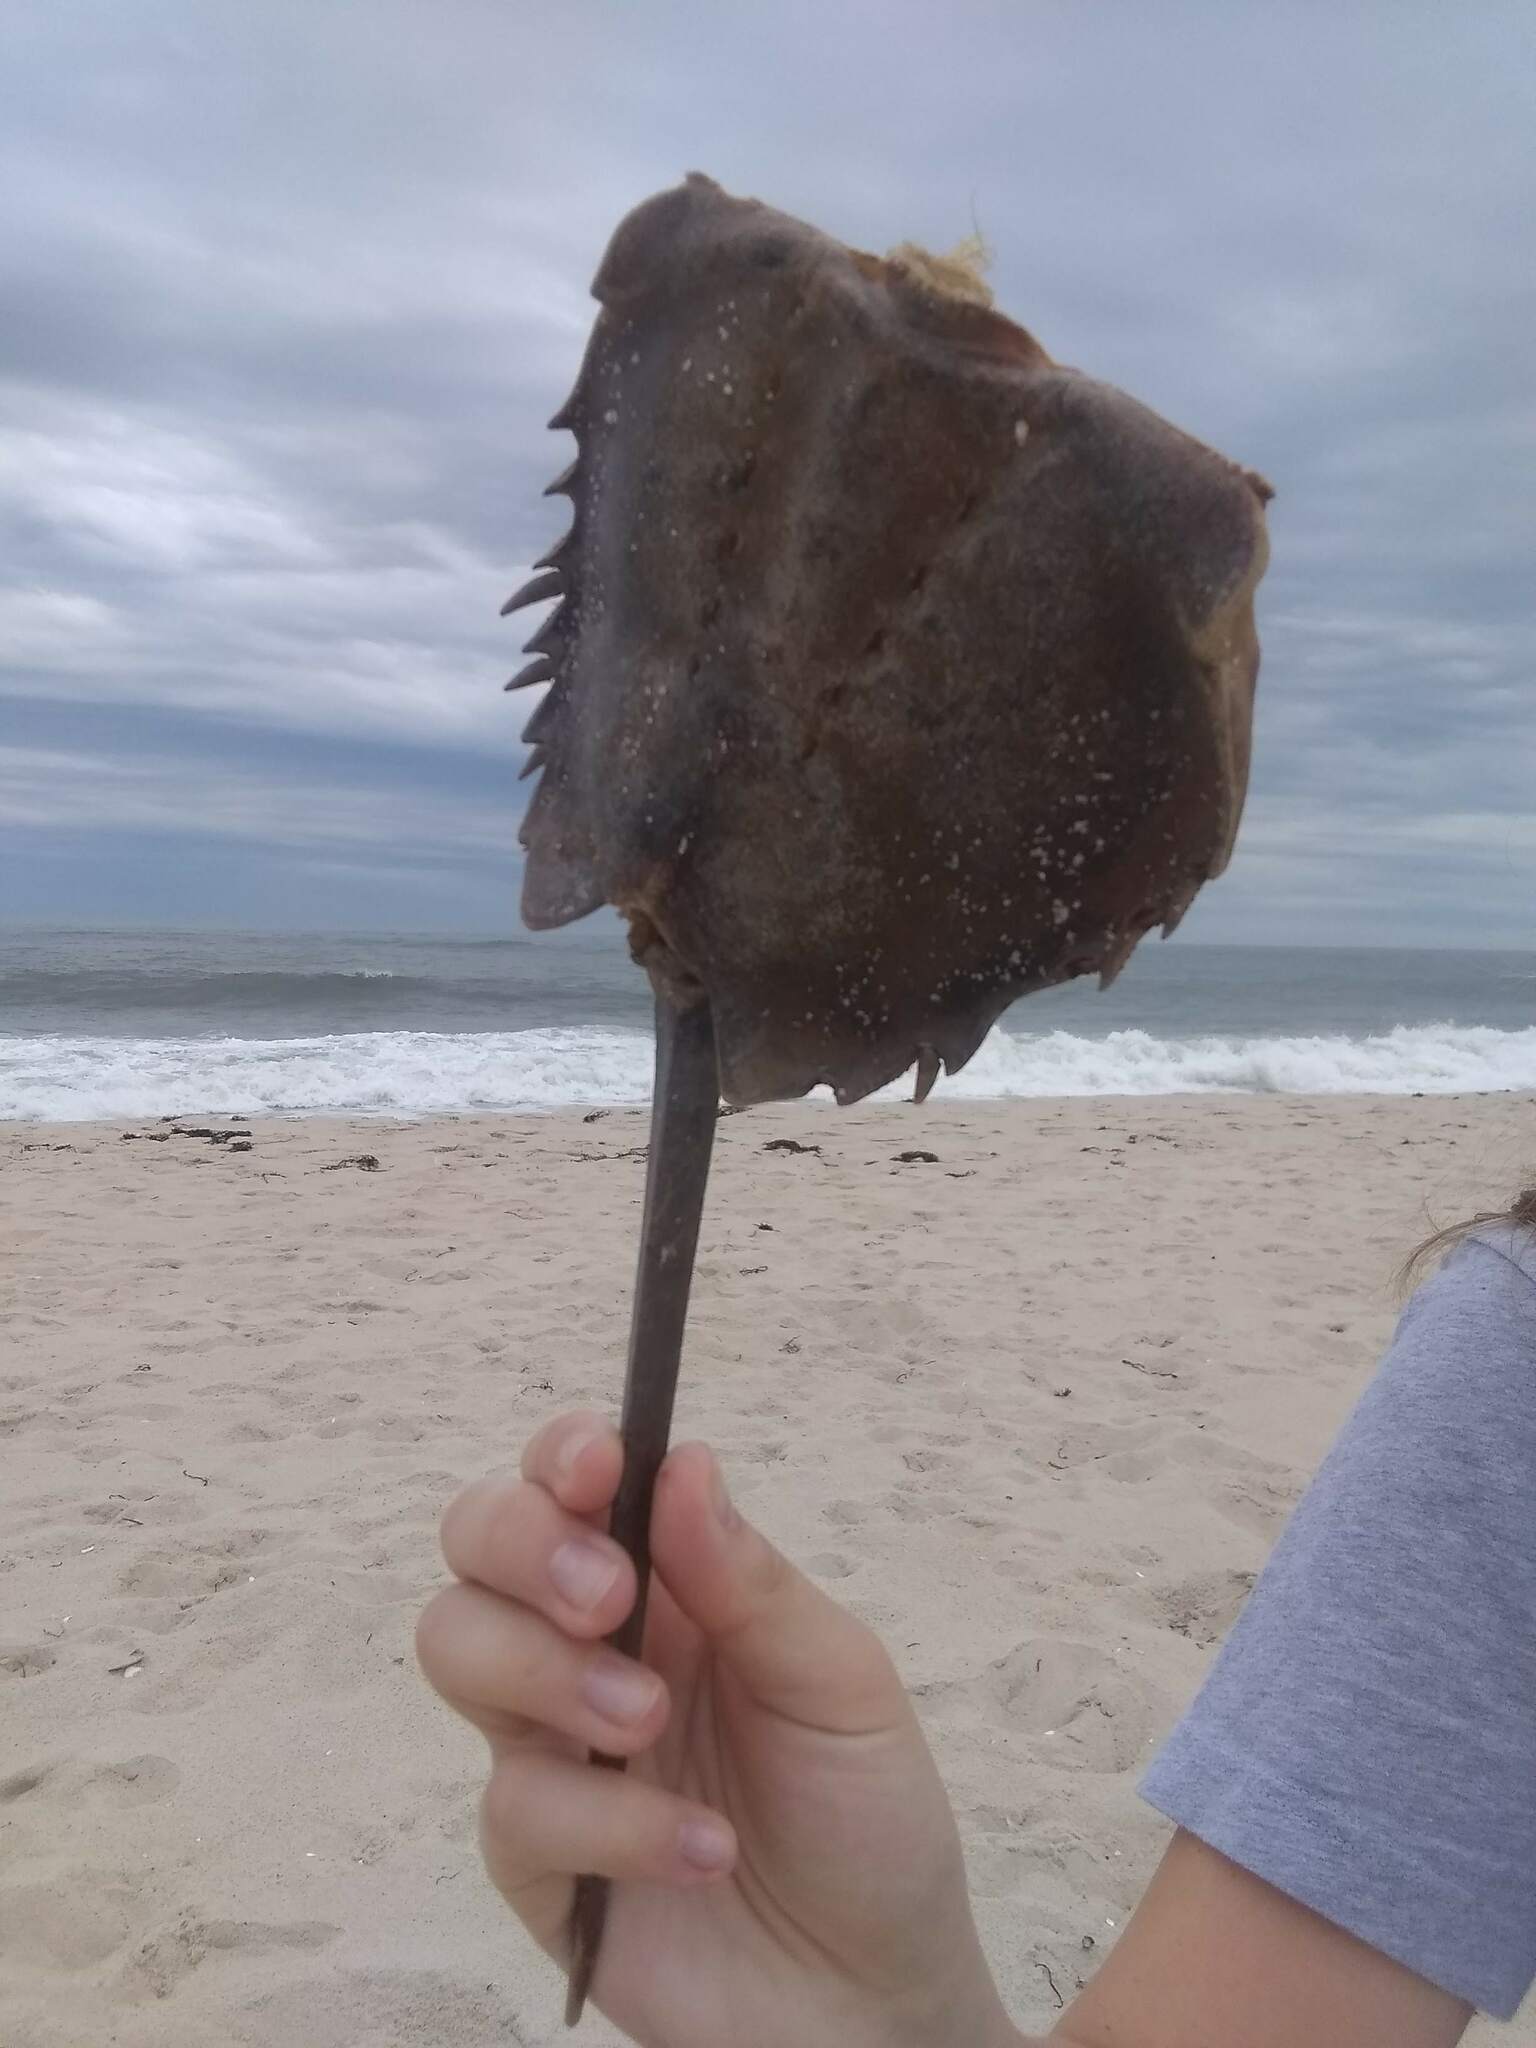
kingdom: Animalia
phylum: Arthropoda
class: Merostomata
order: Xiphosurida
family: Limulidae
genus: Limulus
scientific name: Limulus polyphemus
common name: Horseshoe crab
